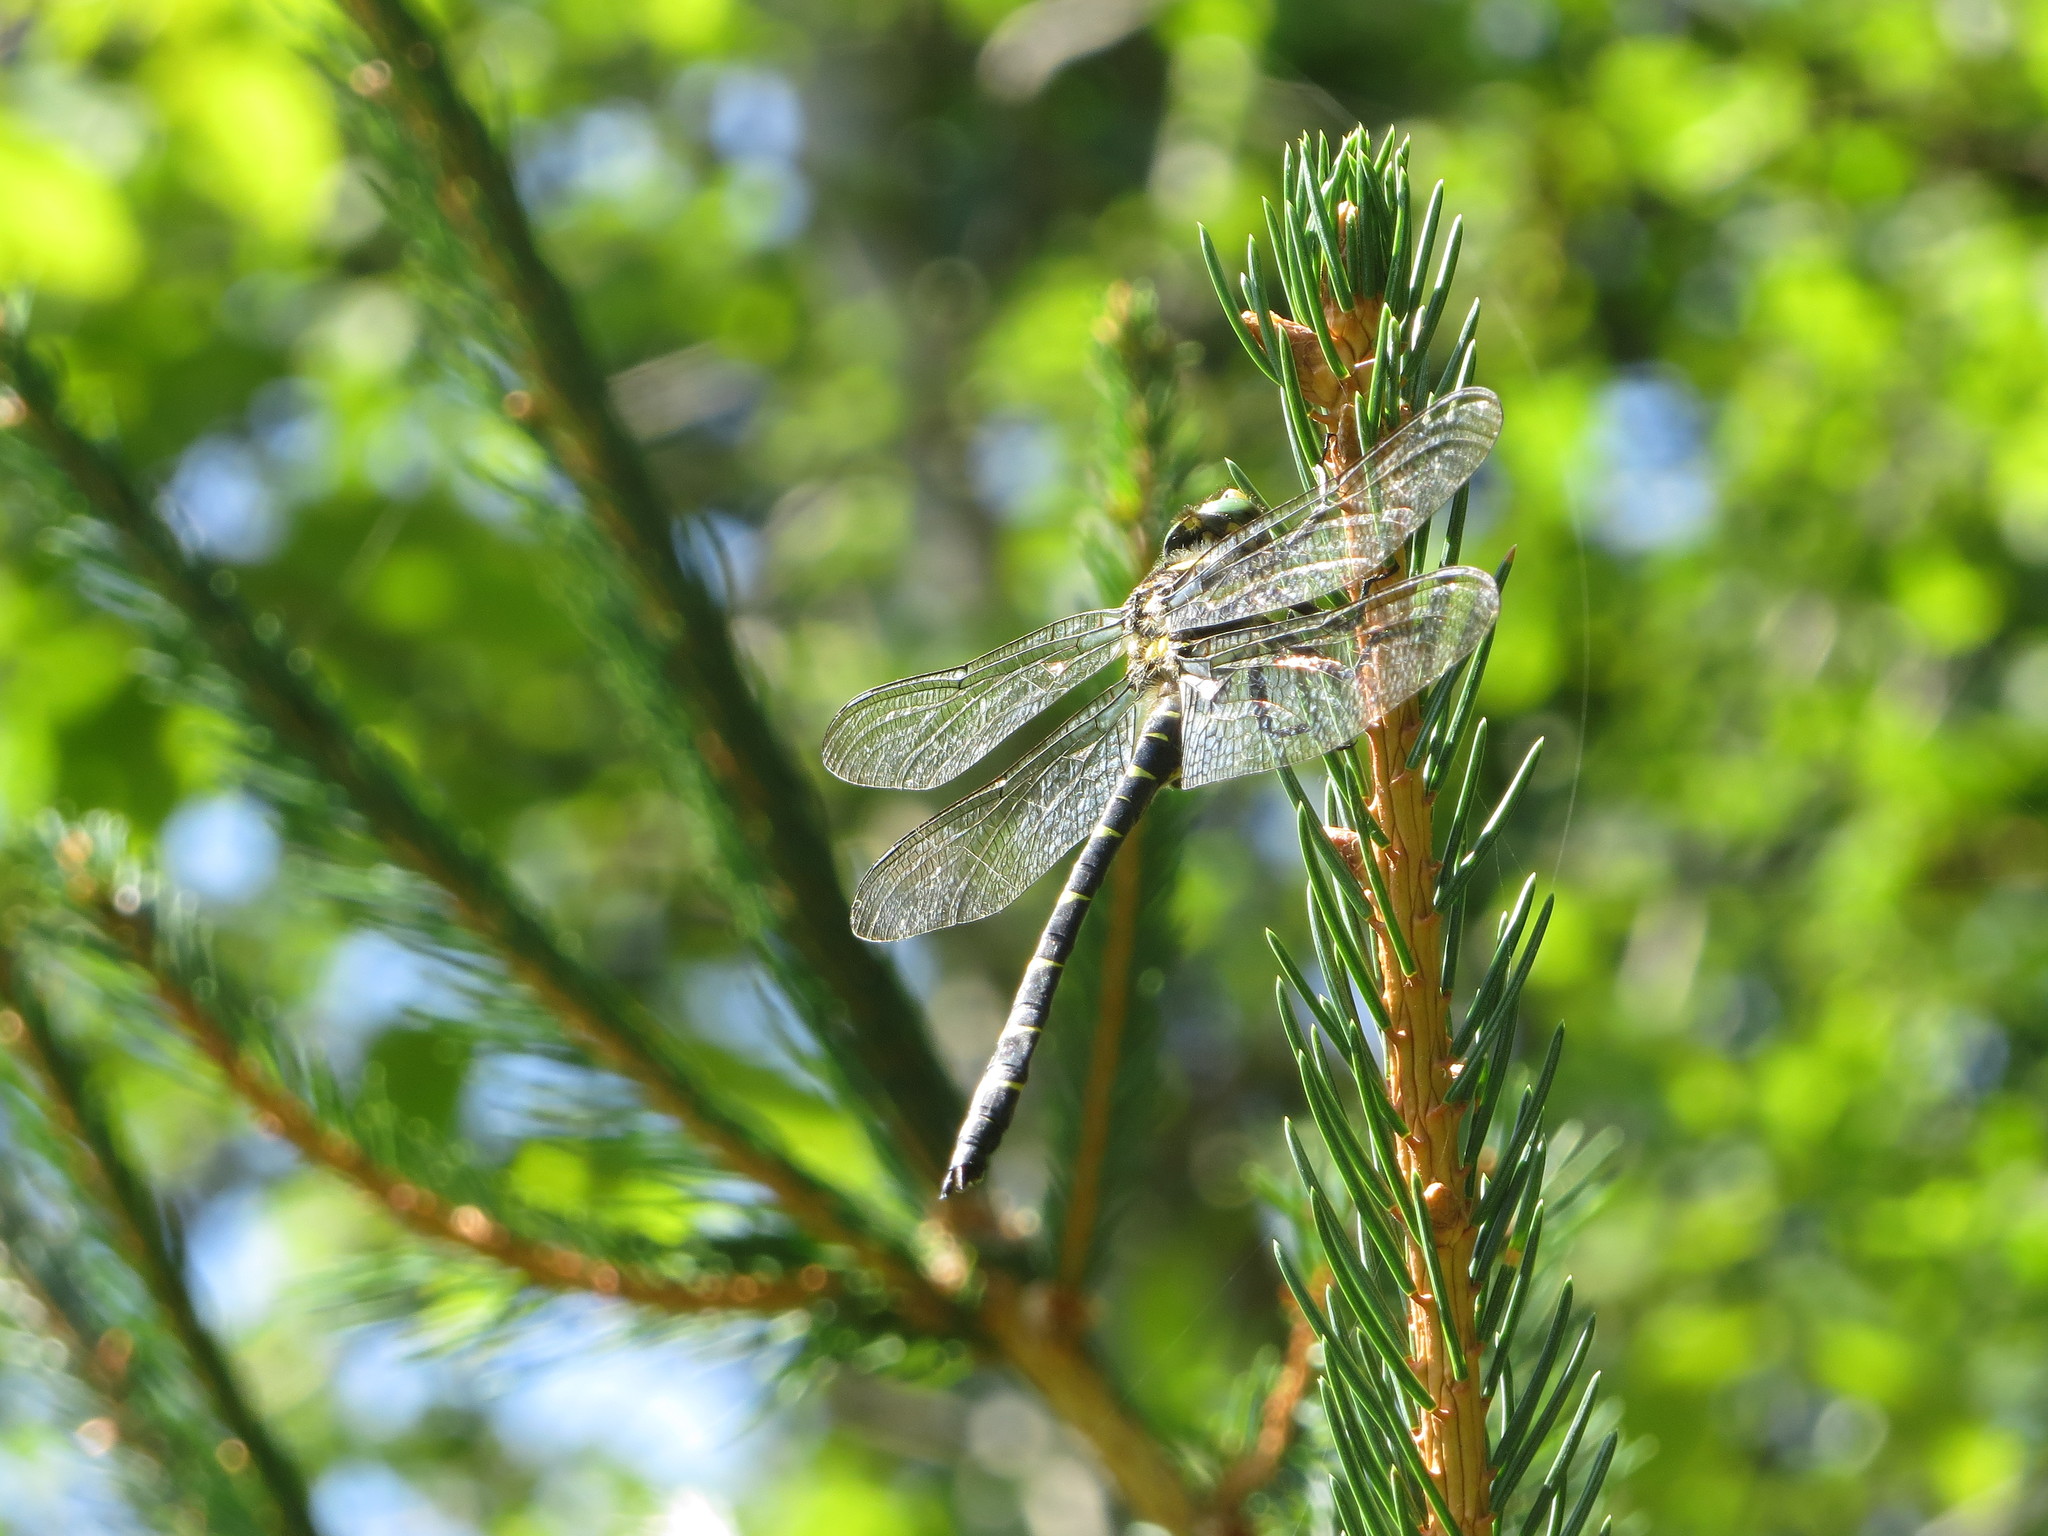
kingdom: Animalia
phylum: Arthropoda
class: Insecta
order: Odonata
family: Cordulegastridae
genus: Cordulegaster
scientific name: Cordulegaster bidentata
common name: Sombre goldenring
